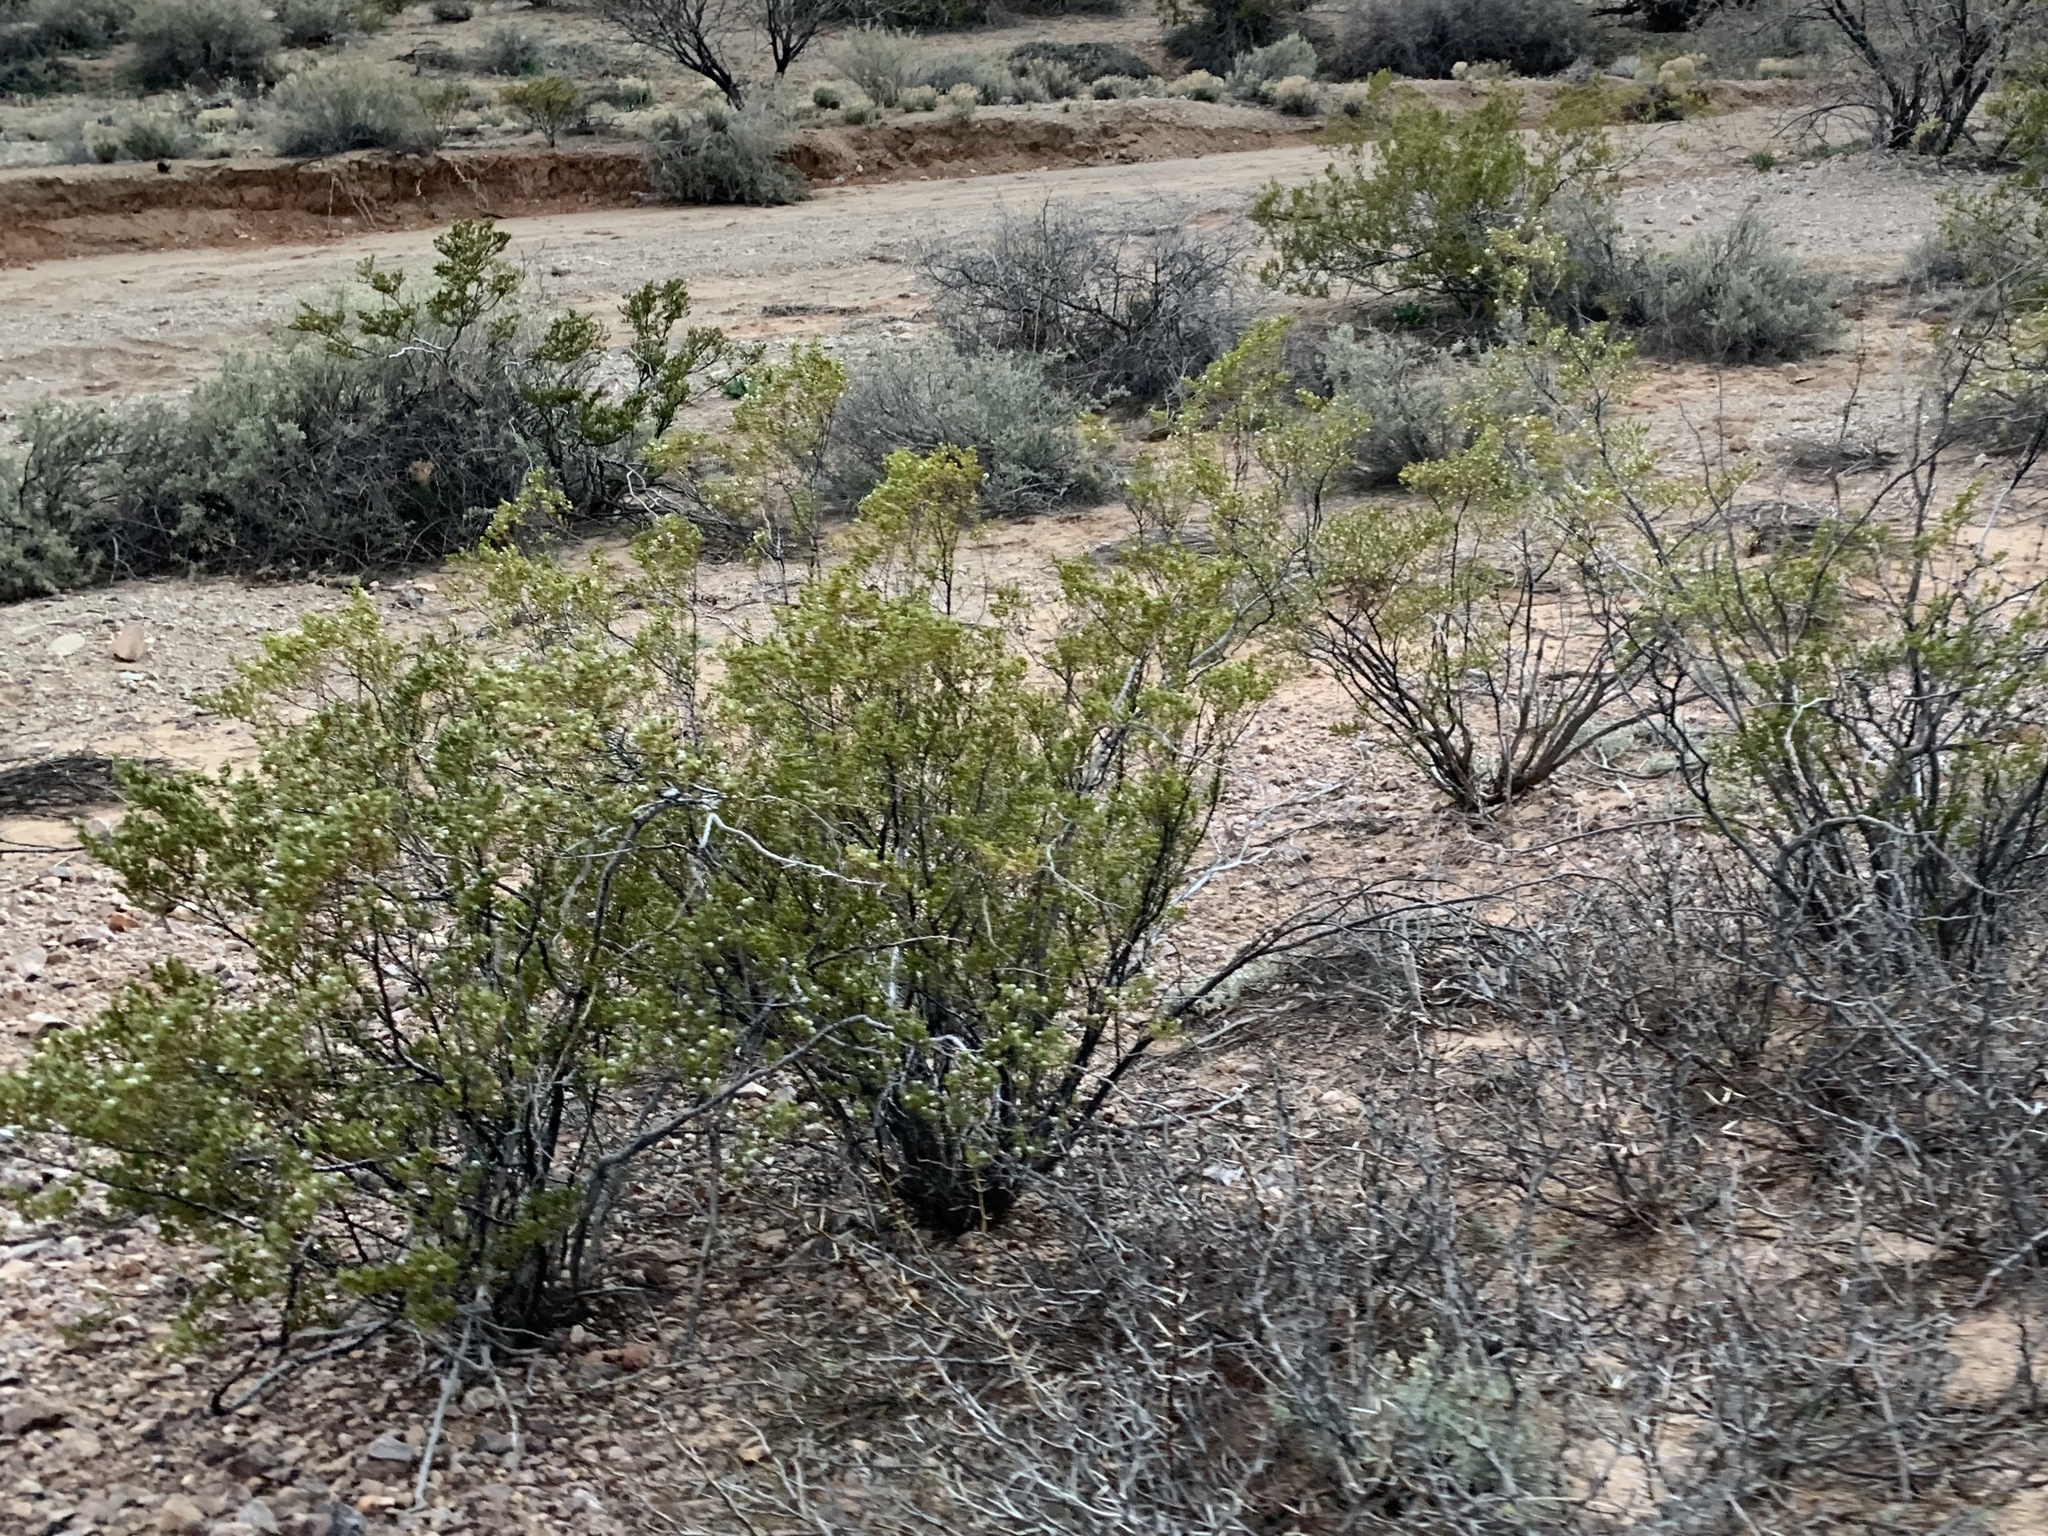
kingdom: Plantae
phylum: Tracheophyta
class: Magnoliopsida
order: Zygophyllales
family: Zygophyllaceae
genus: Larrea
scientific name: Larrea tridentata
